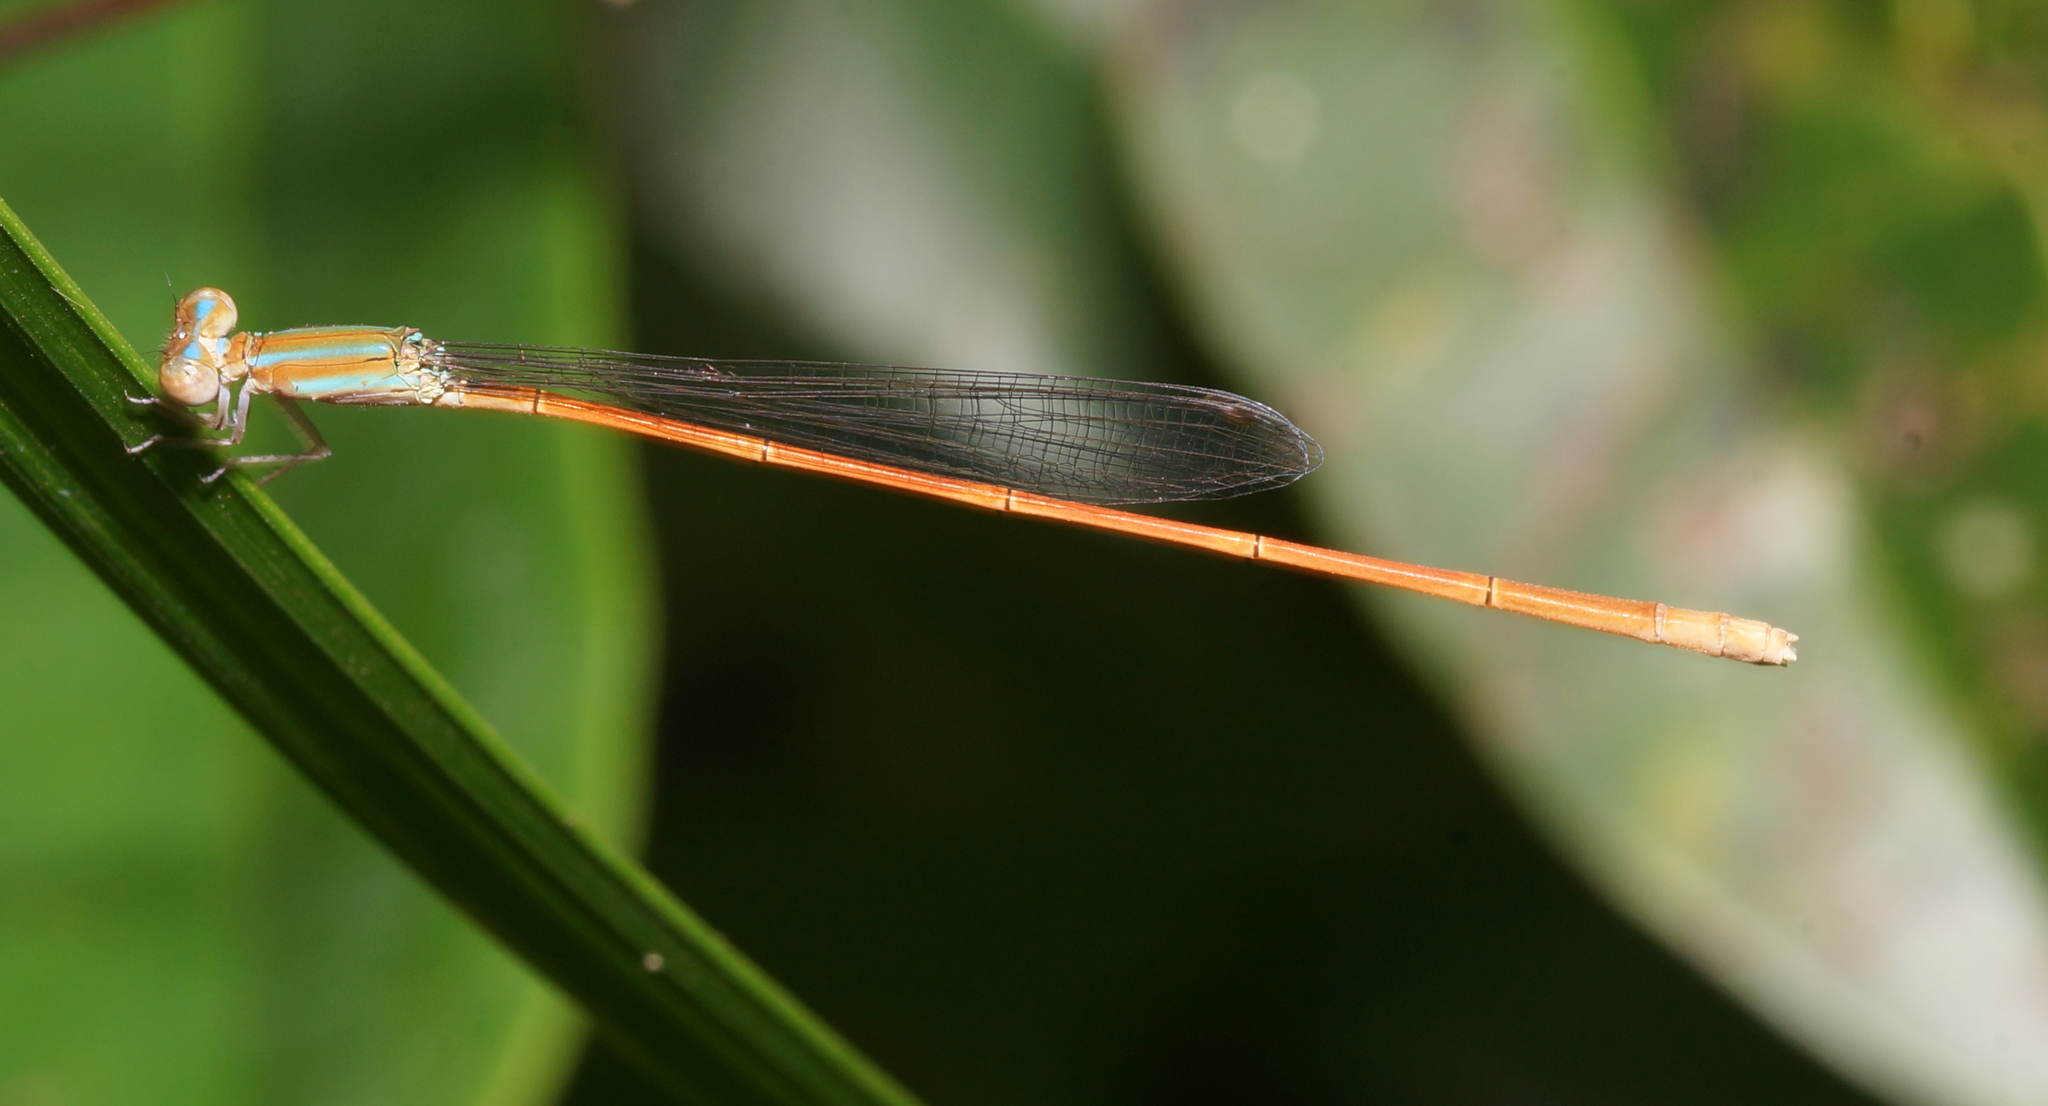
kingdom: Animalia
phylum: Arthropoda
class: Insecta
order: Odonata
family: Coenagrionidae
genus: Aciagrion
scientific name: Aciagrion pallidum
